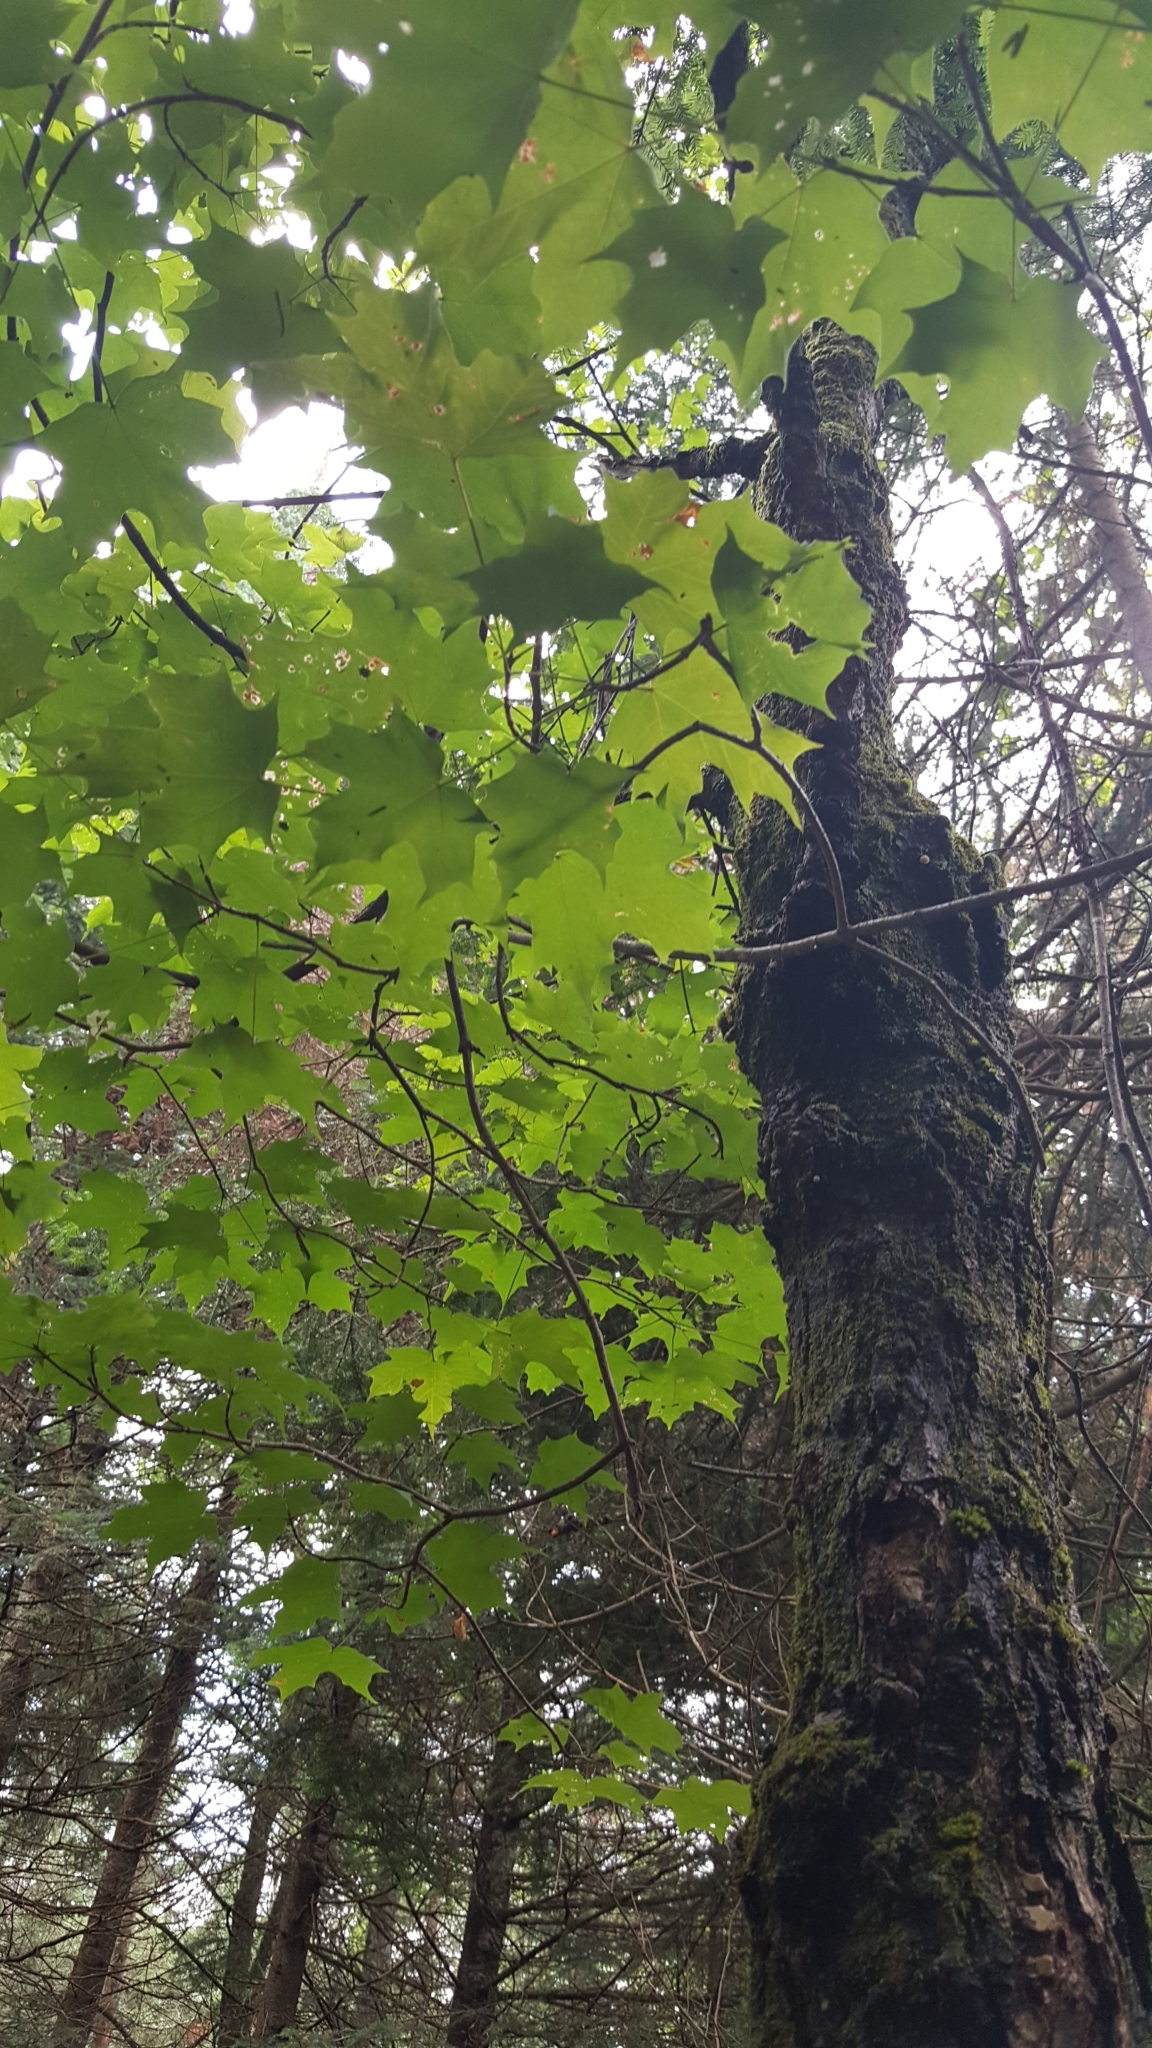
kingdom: Plantae
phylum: Tracheophyta
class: Magnoliopsida
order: Sapindales
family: Sapindaceae
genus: Acer
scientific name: Acer saccharum
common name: Sugar maple
